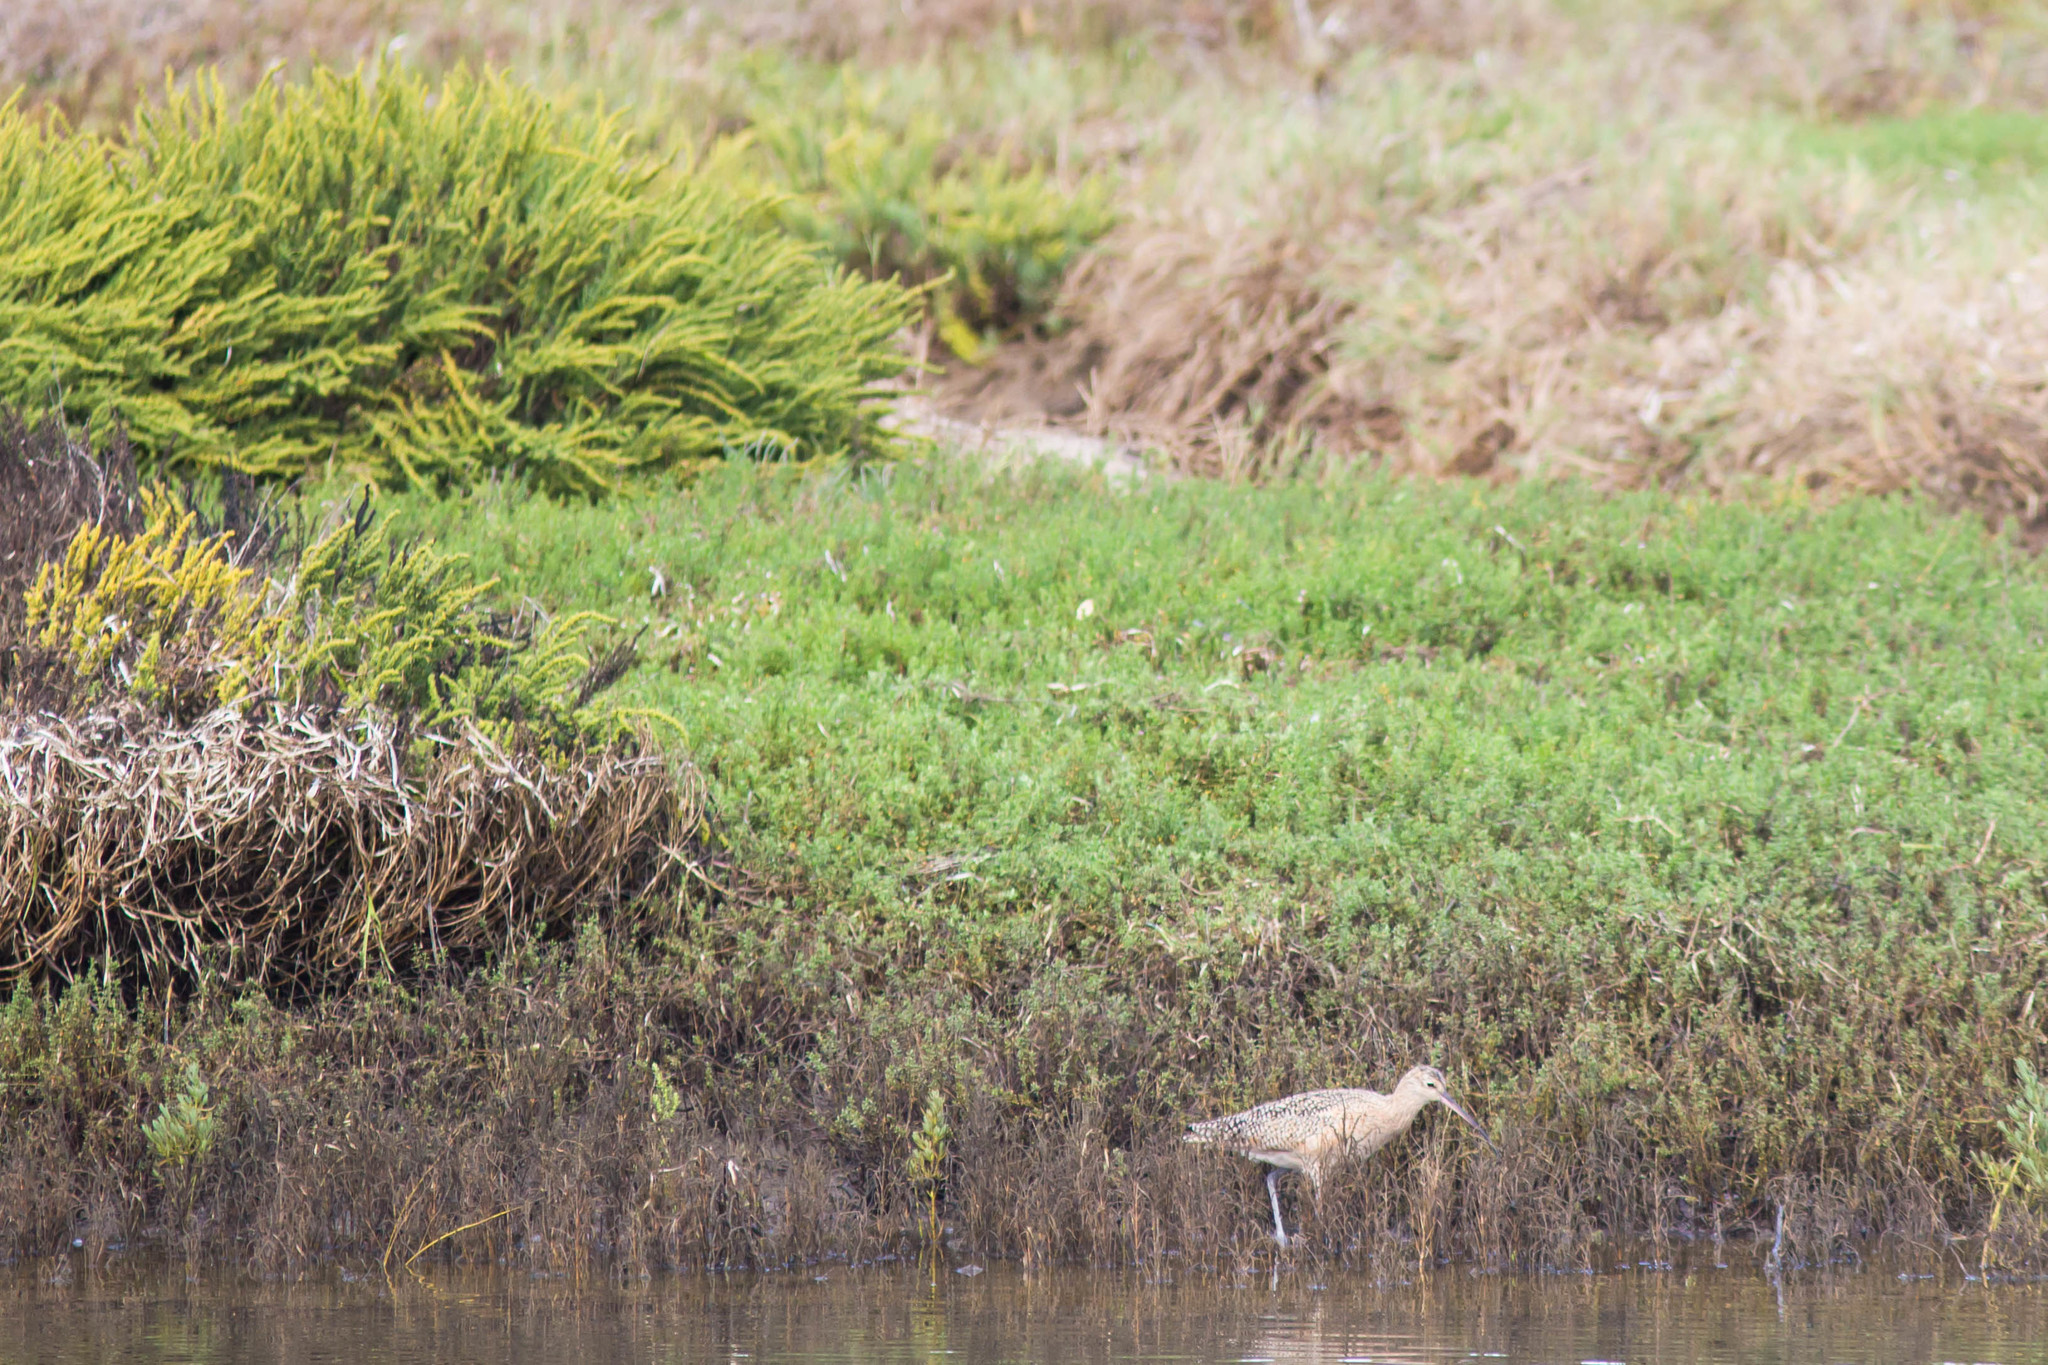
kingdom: Animalia
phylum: Chordata
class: Aves
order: Charadriiformes
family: Scolopacidae
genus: Limosa
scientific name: Limosa fedoa
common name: Marbled godwit
